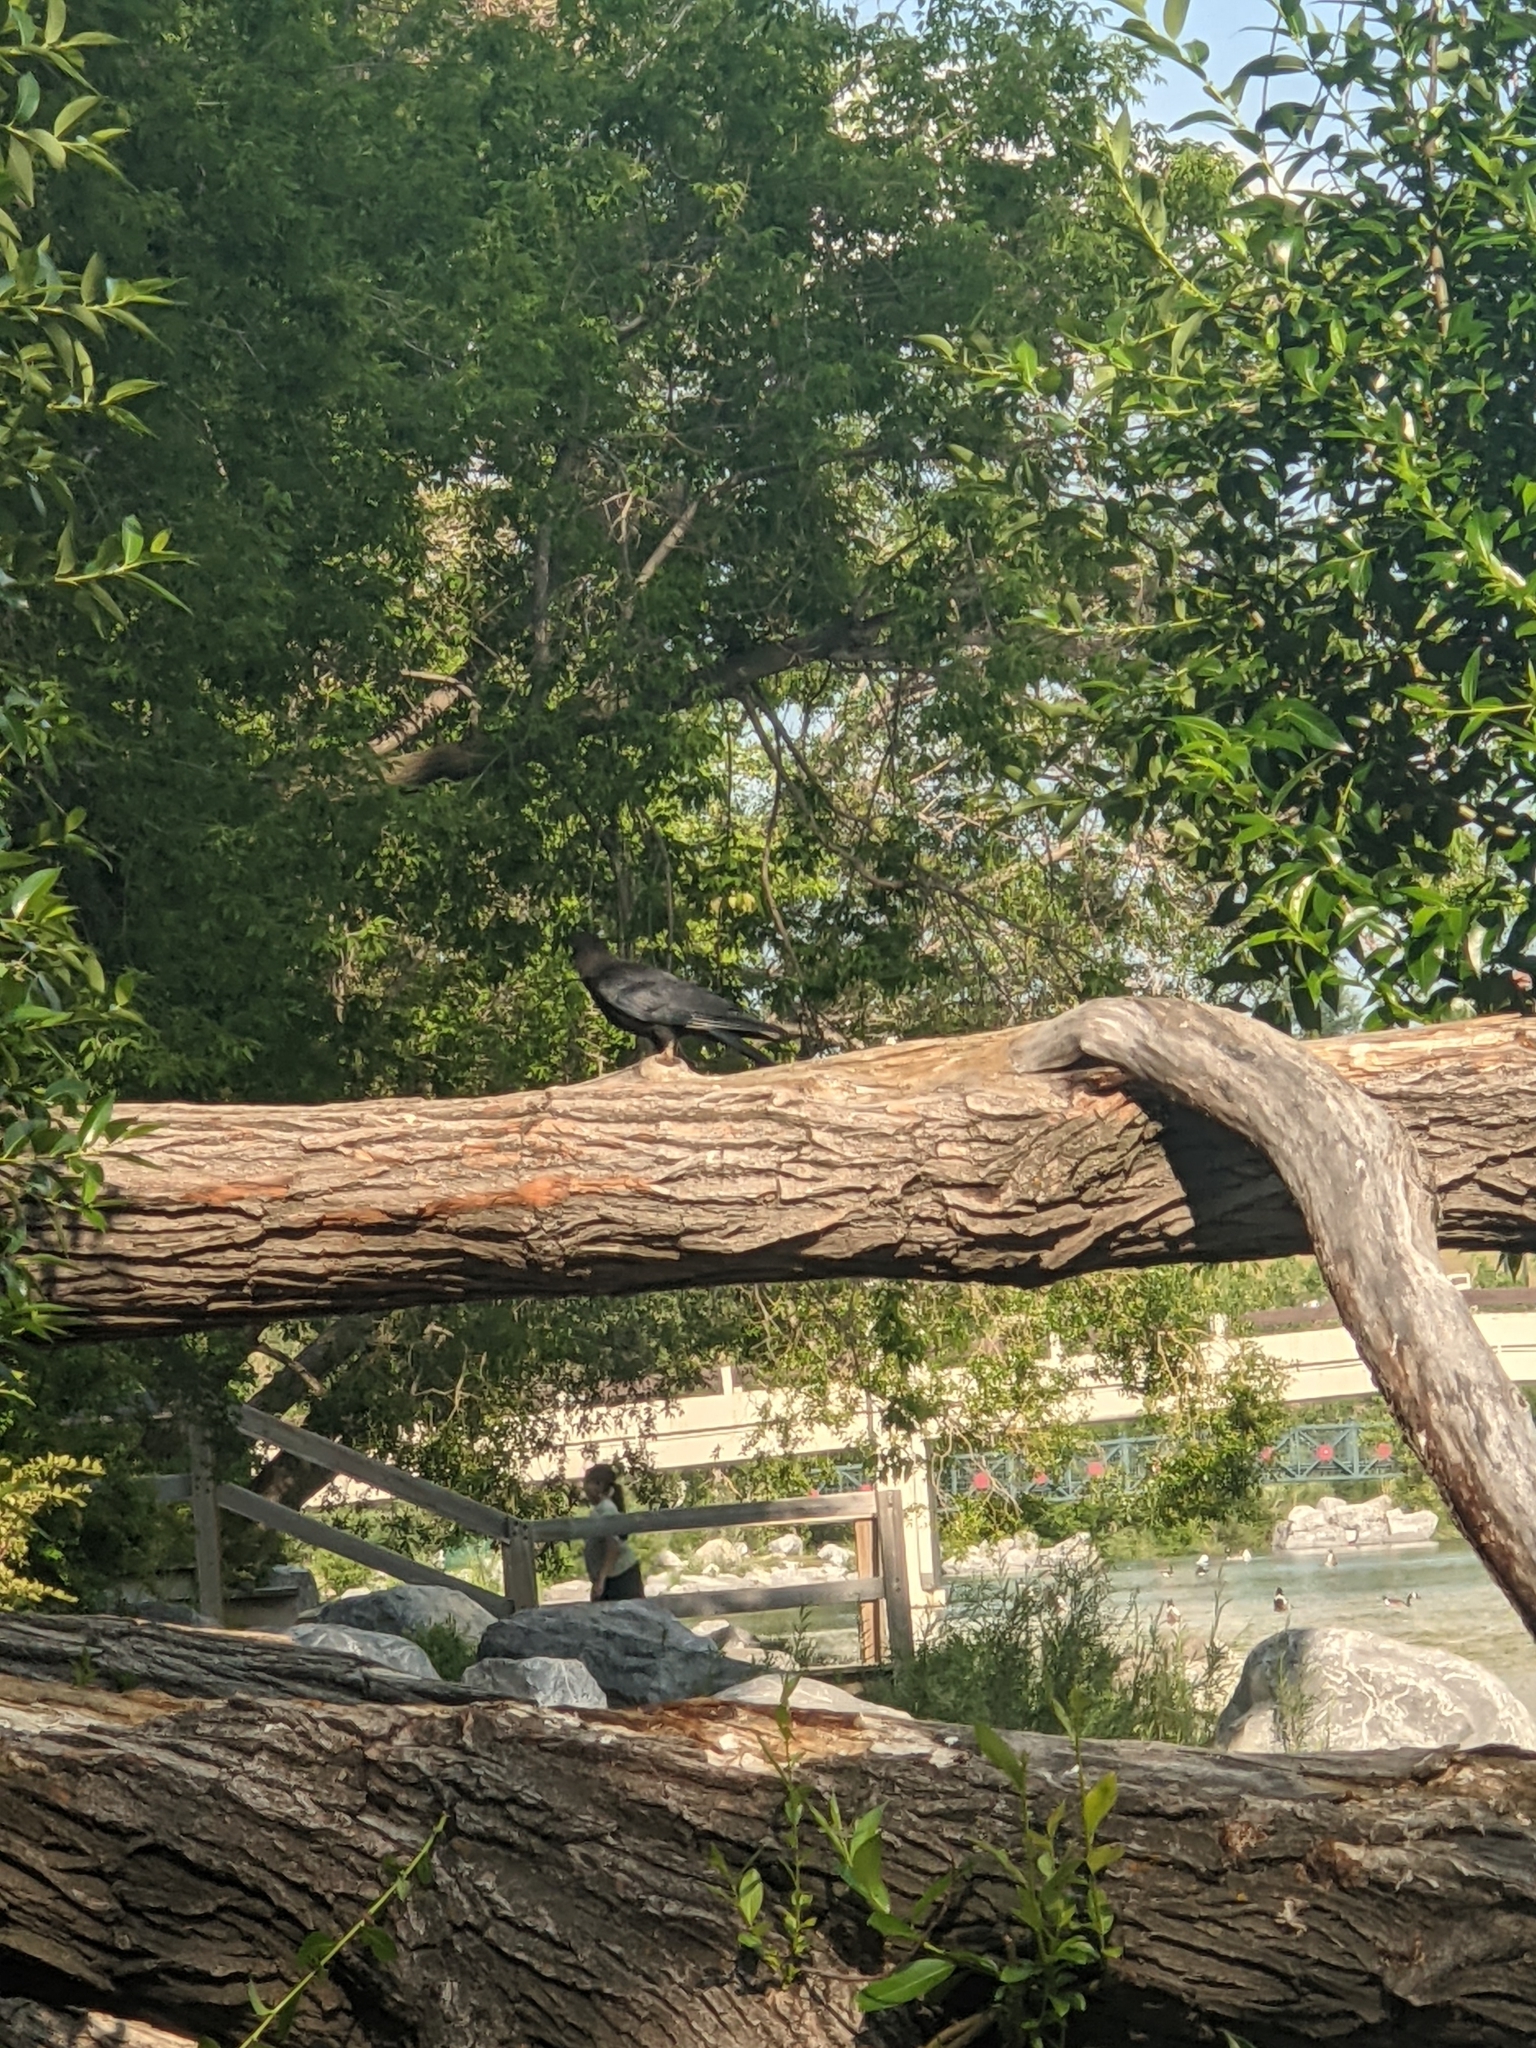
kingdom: Animalia
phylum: Chordata
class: Aves
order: Passeriformes
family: Corvidae
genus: Corvus
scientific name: Corvus brachyrhynchos
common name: American crow
